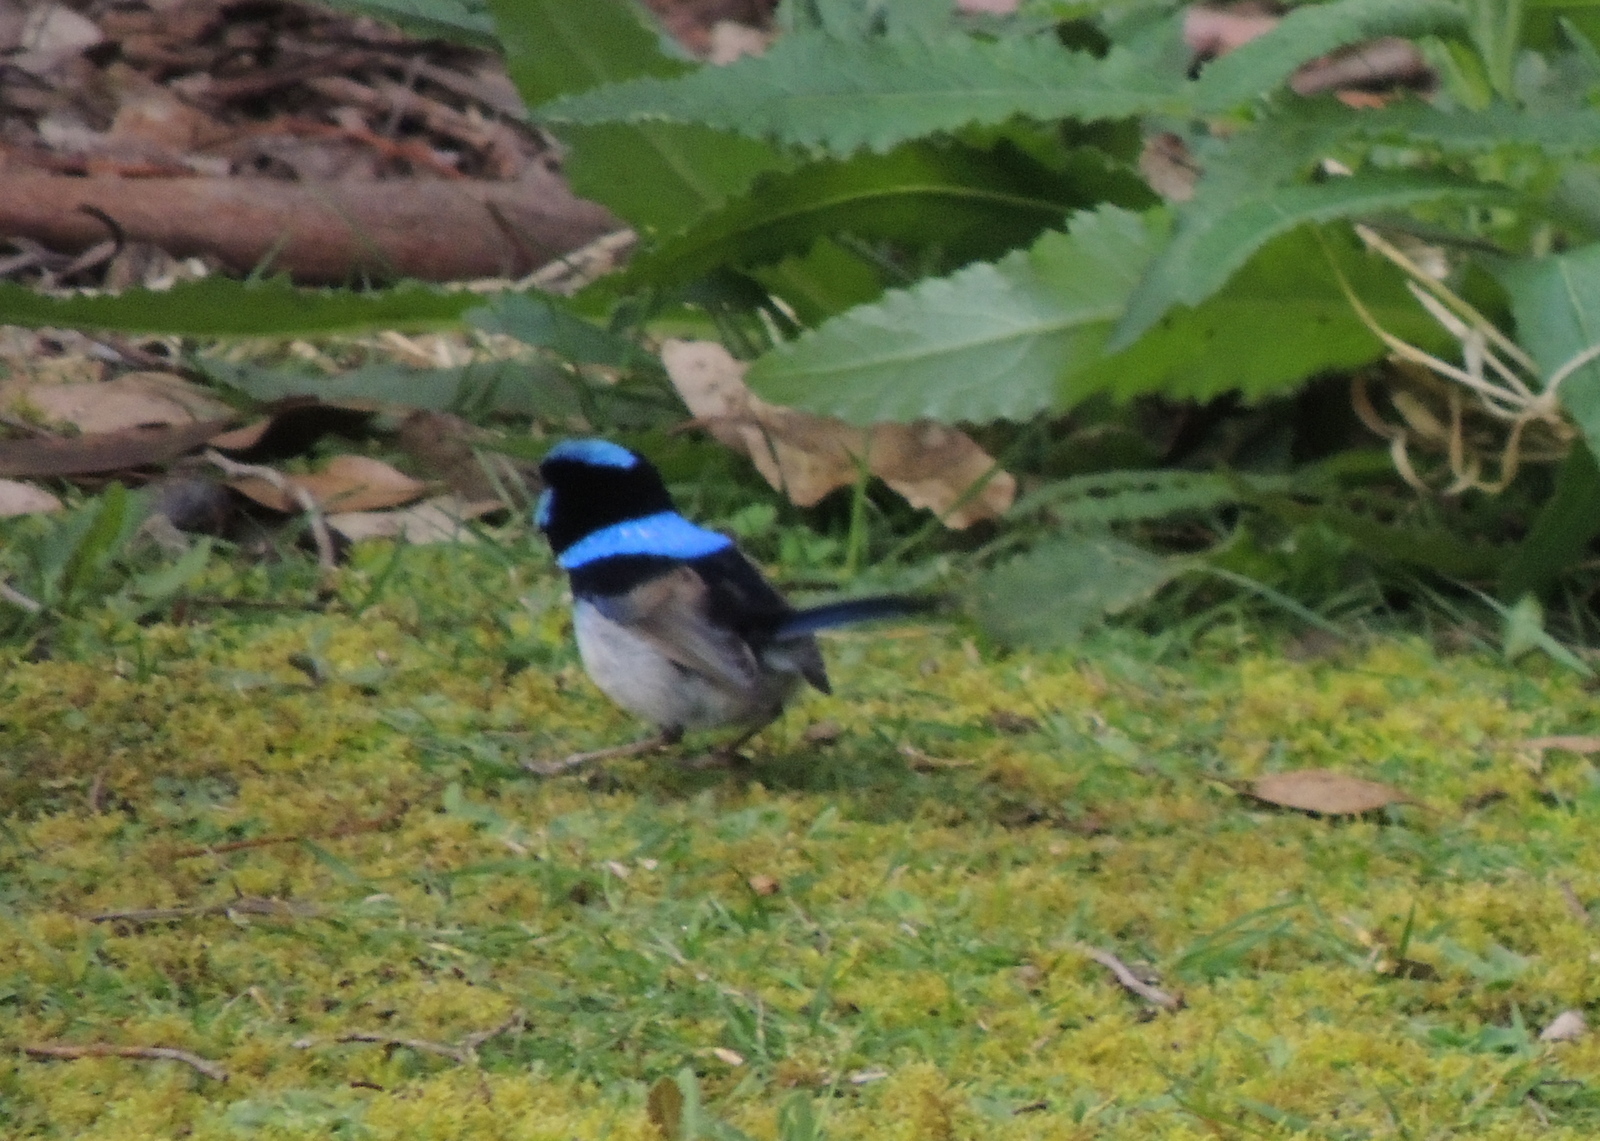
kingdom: Animalia
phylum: Chordata
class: Aves
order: Passeriformes
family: Maluridae
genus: Malurus
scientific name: Malurus cyaneus
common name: Superb fairywren
